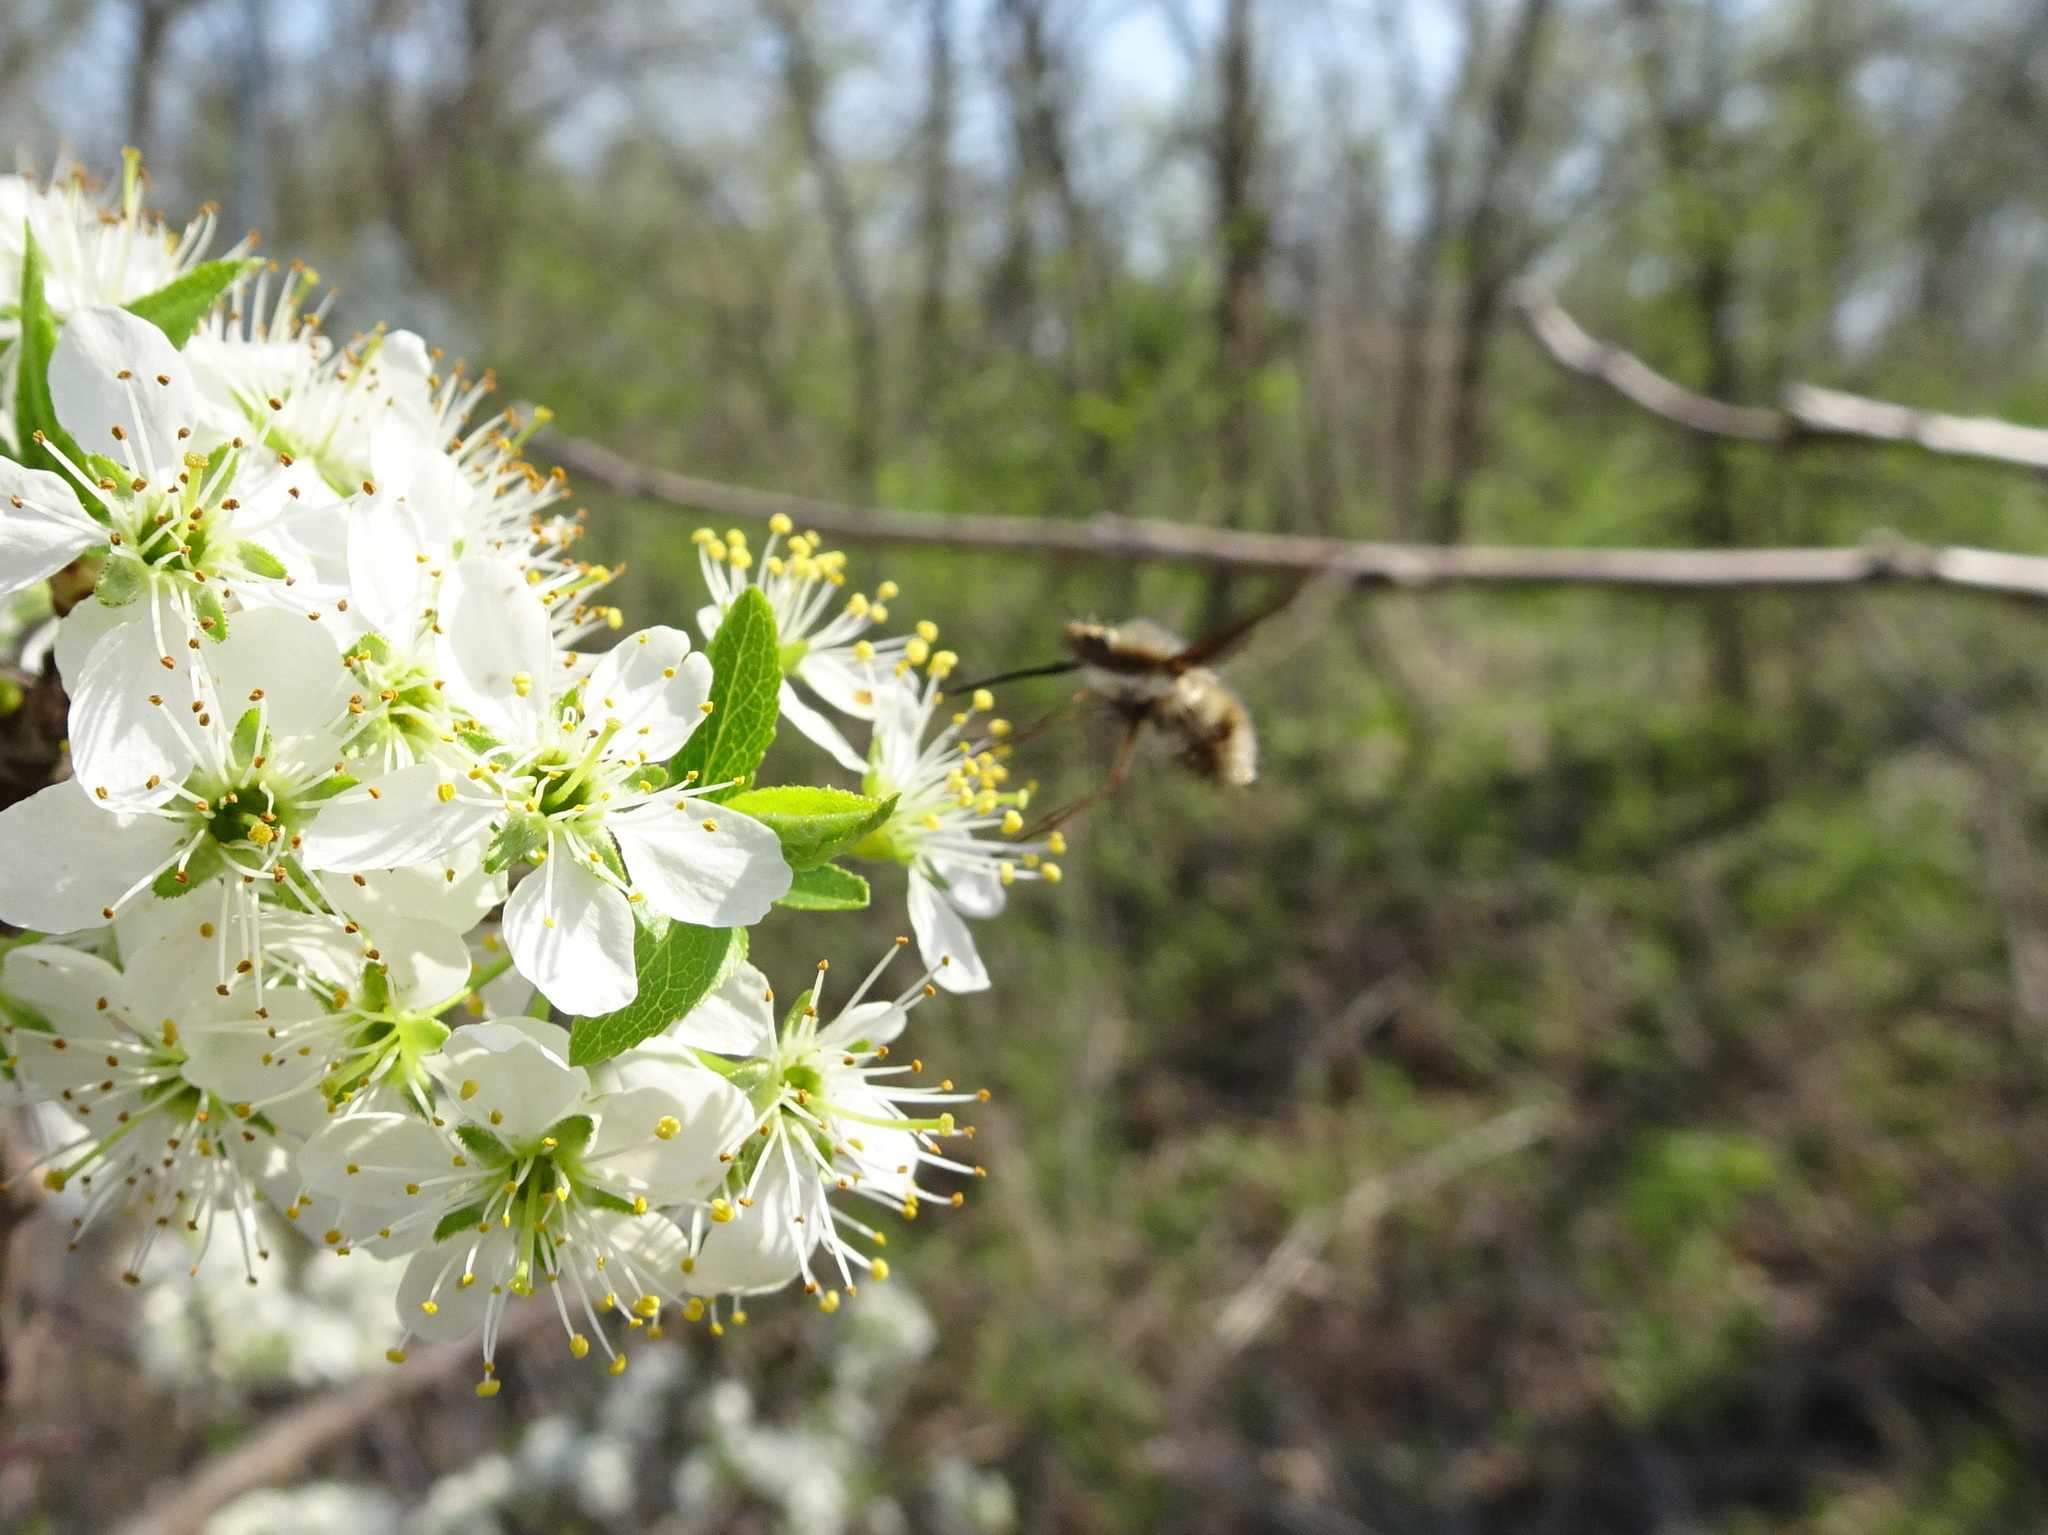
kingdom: Animalia
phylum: Arthropoda
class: Insecta
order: Diptera
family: Bombyliidae
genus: Bombylius
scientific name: Bombylius major
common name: Bee fly
